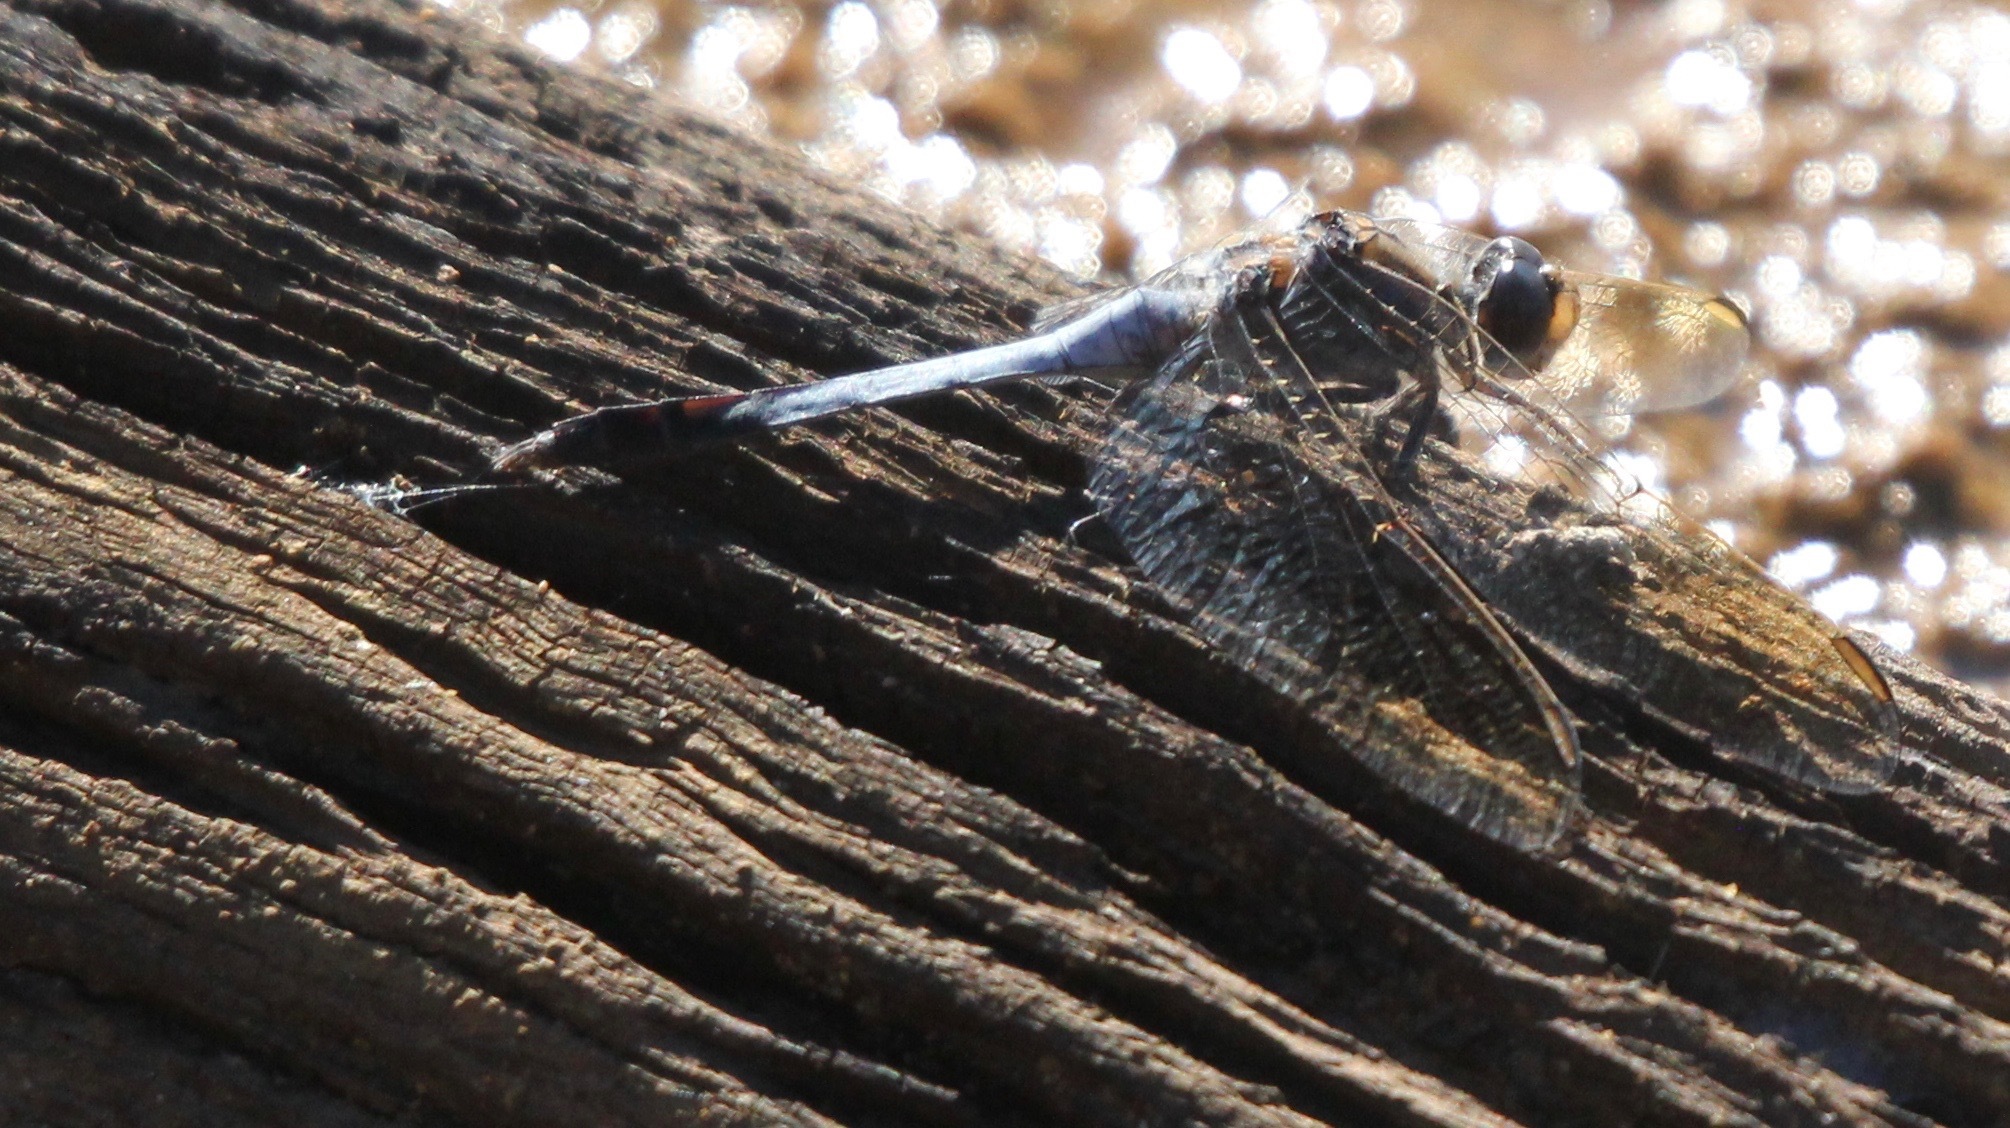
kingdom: Animalia
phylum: Arthropoda
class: Insecta
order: Odonata
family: Libellulidae
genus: Orthetrum
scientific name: Orthetrum caledonicum
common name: Blue skimmer
